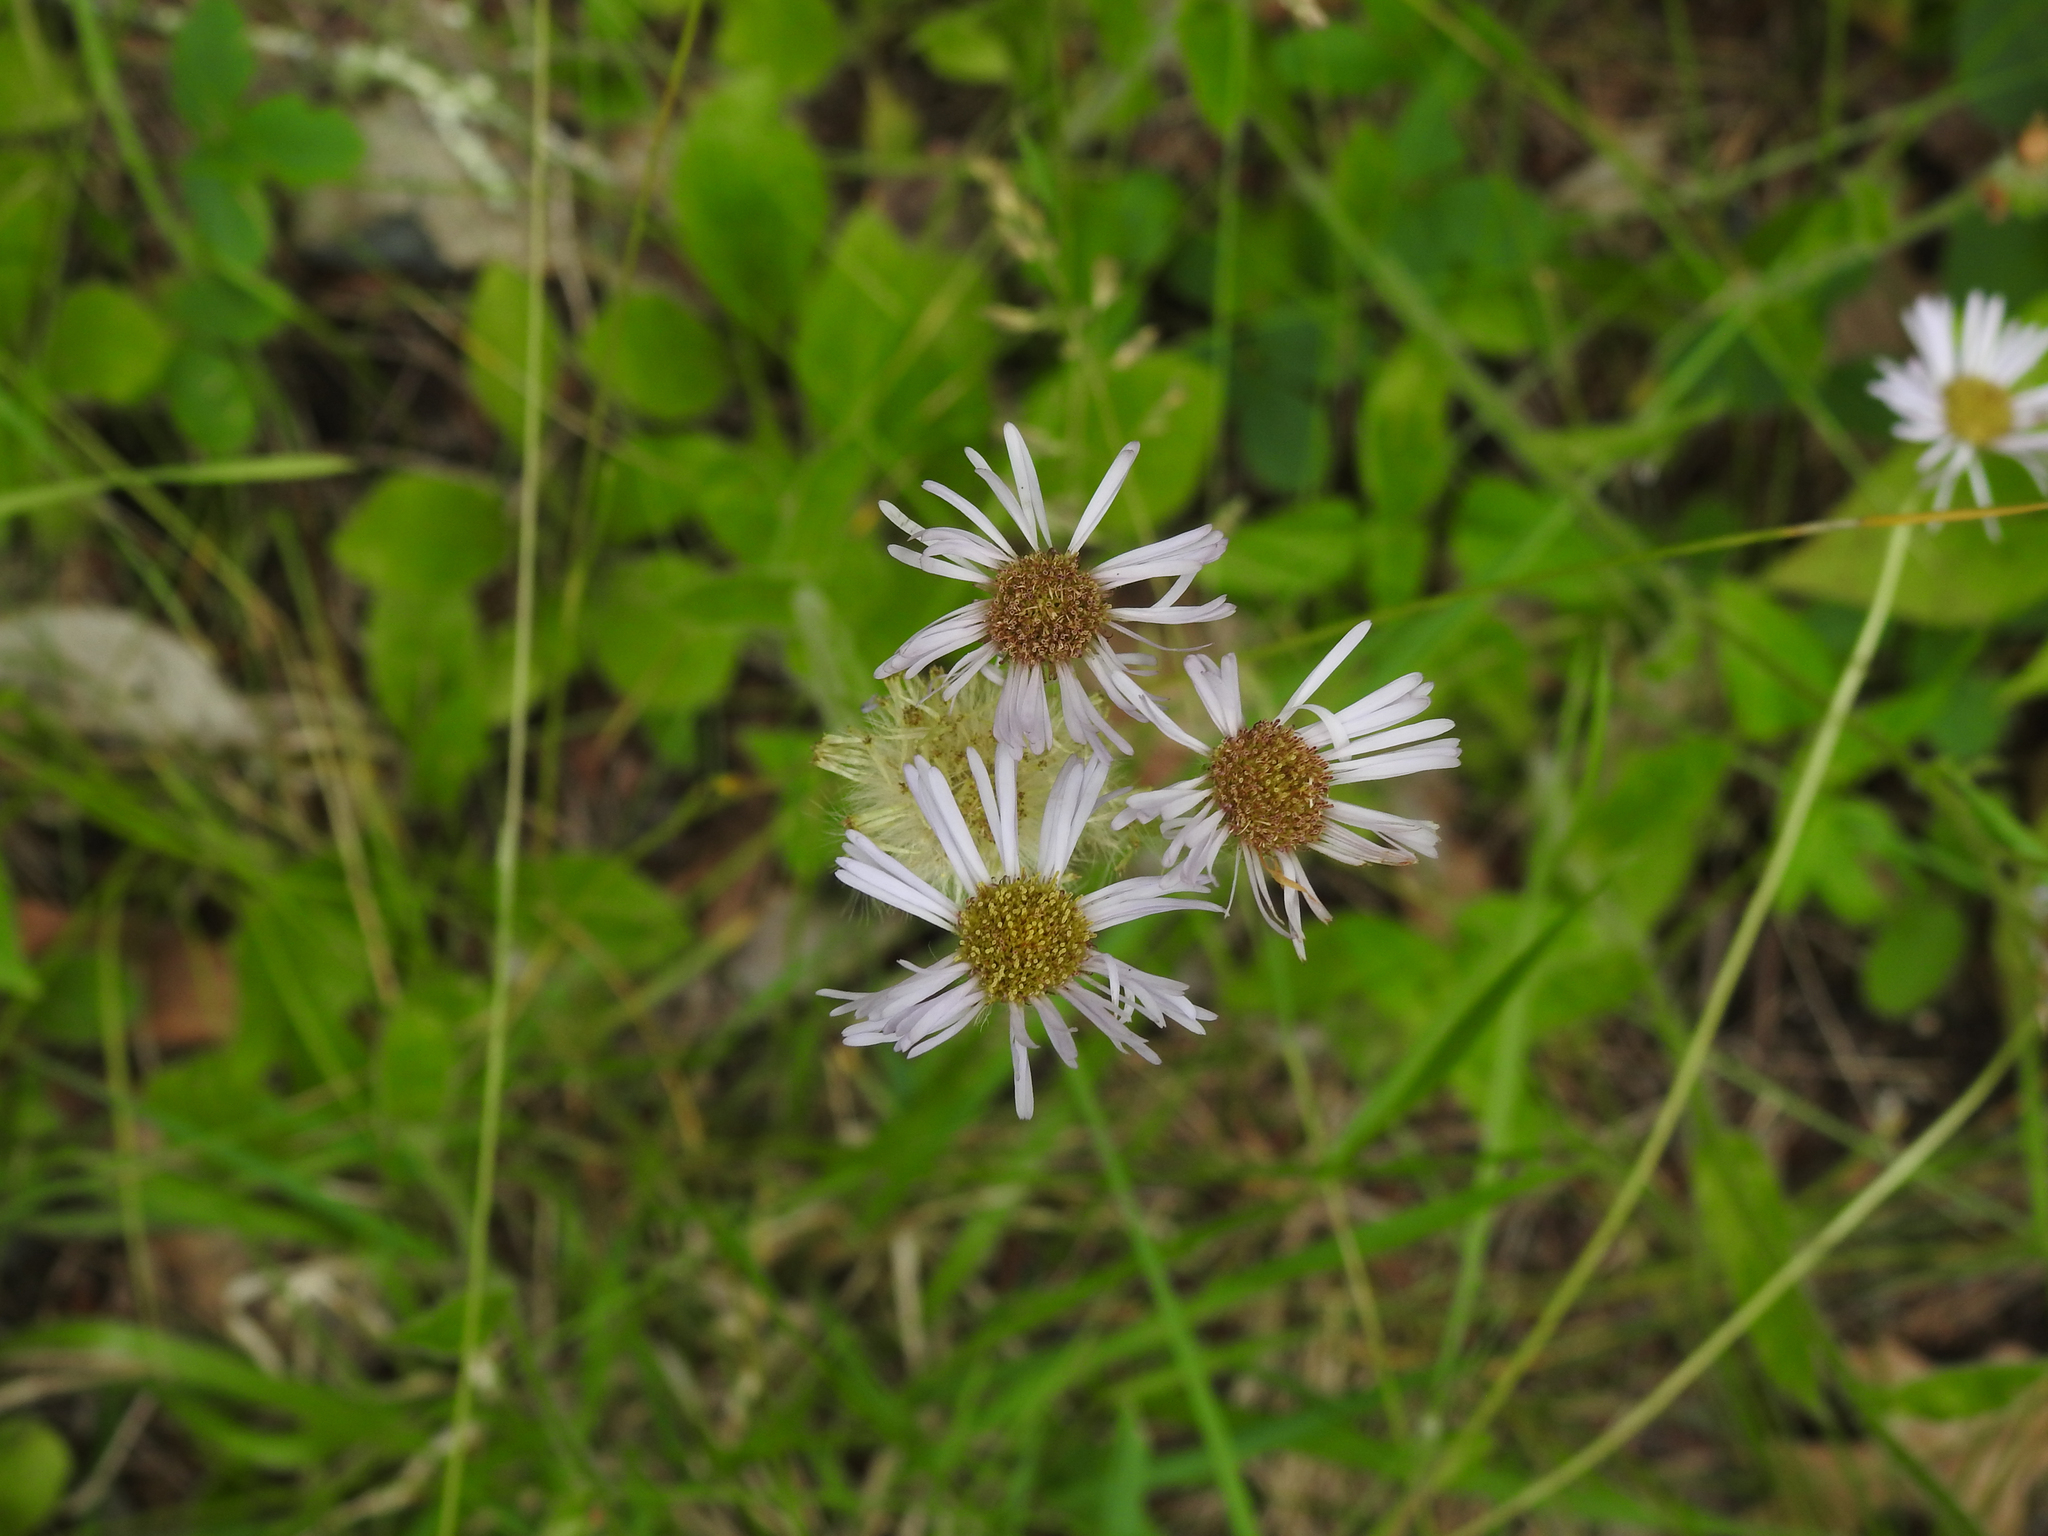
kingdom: Plantae
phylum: Tracheophyta
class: Magnoliopsida
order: Asterales
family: Asteraceae
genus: Erigeron
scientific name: Erigeron pulchellus
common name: Hairy fleabane
